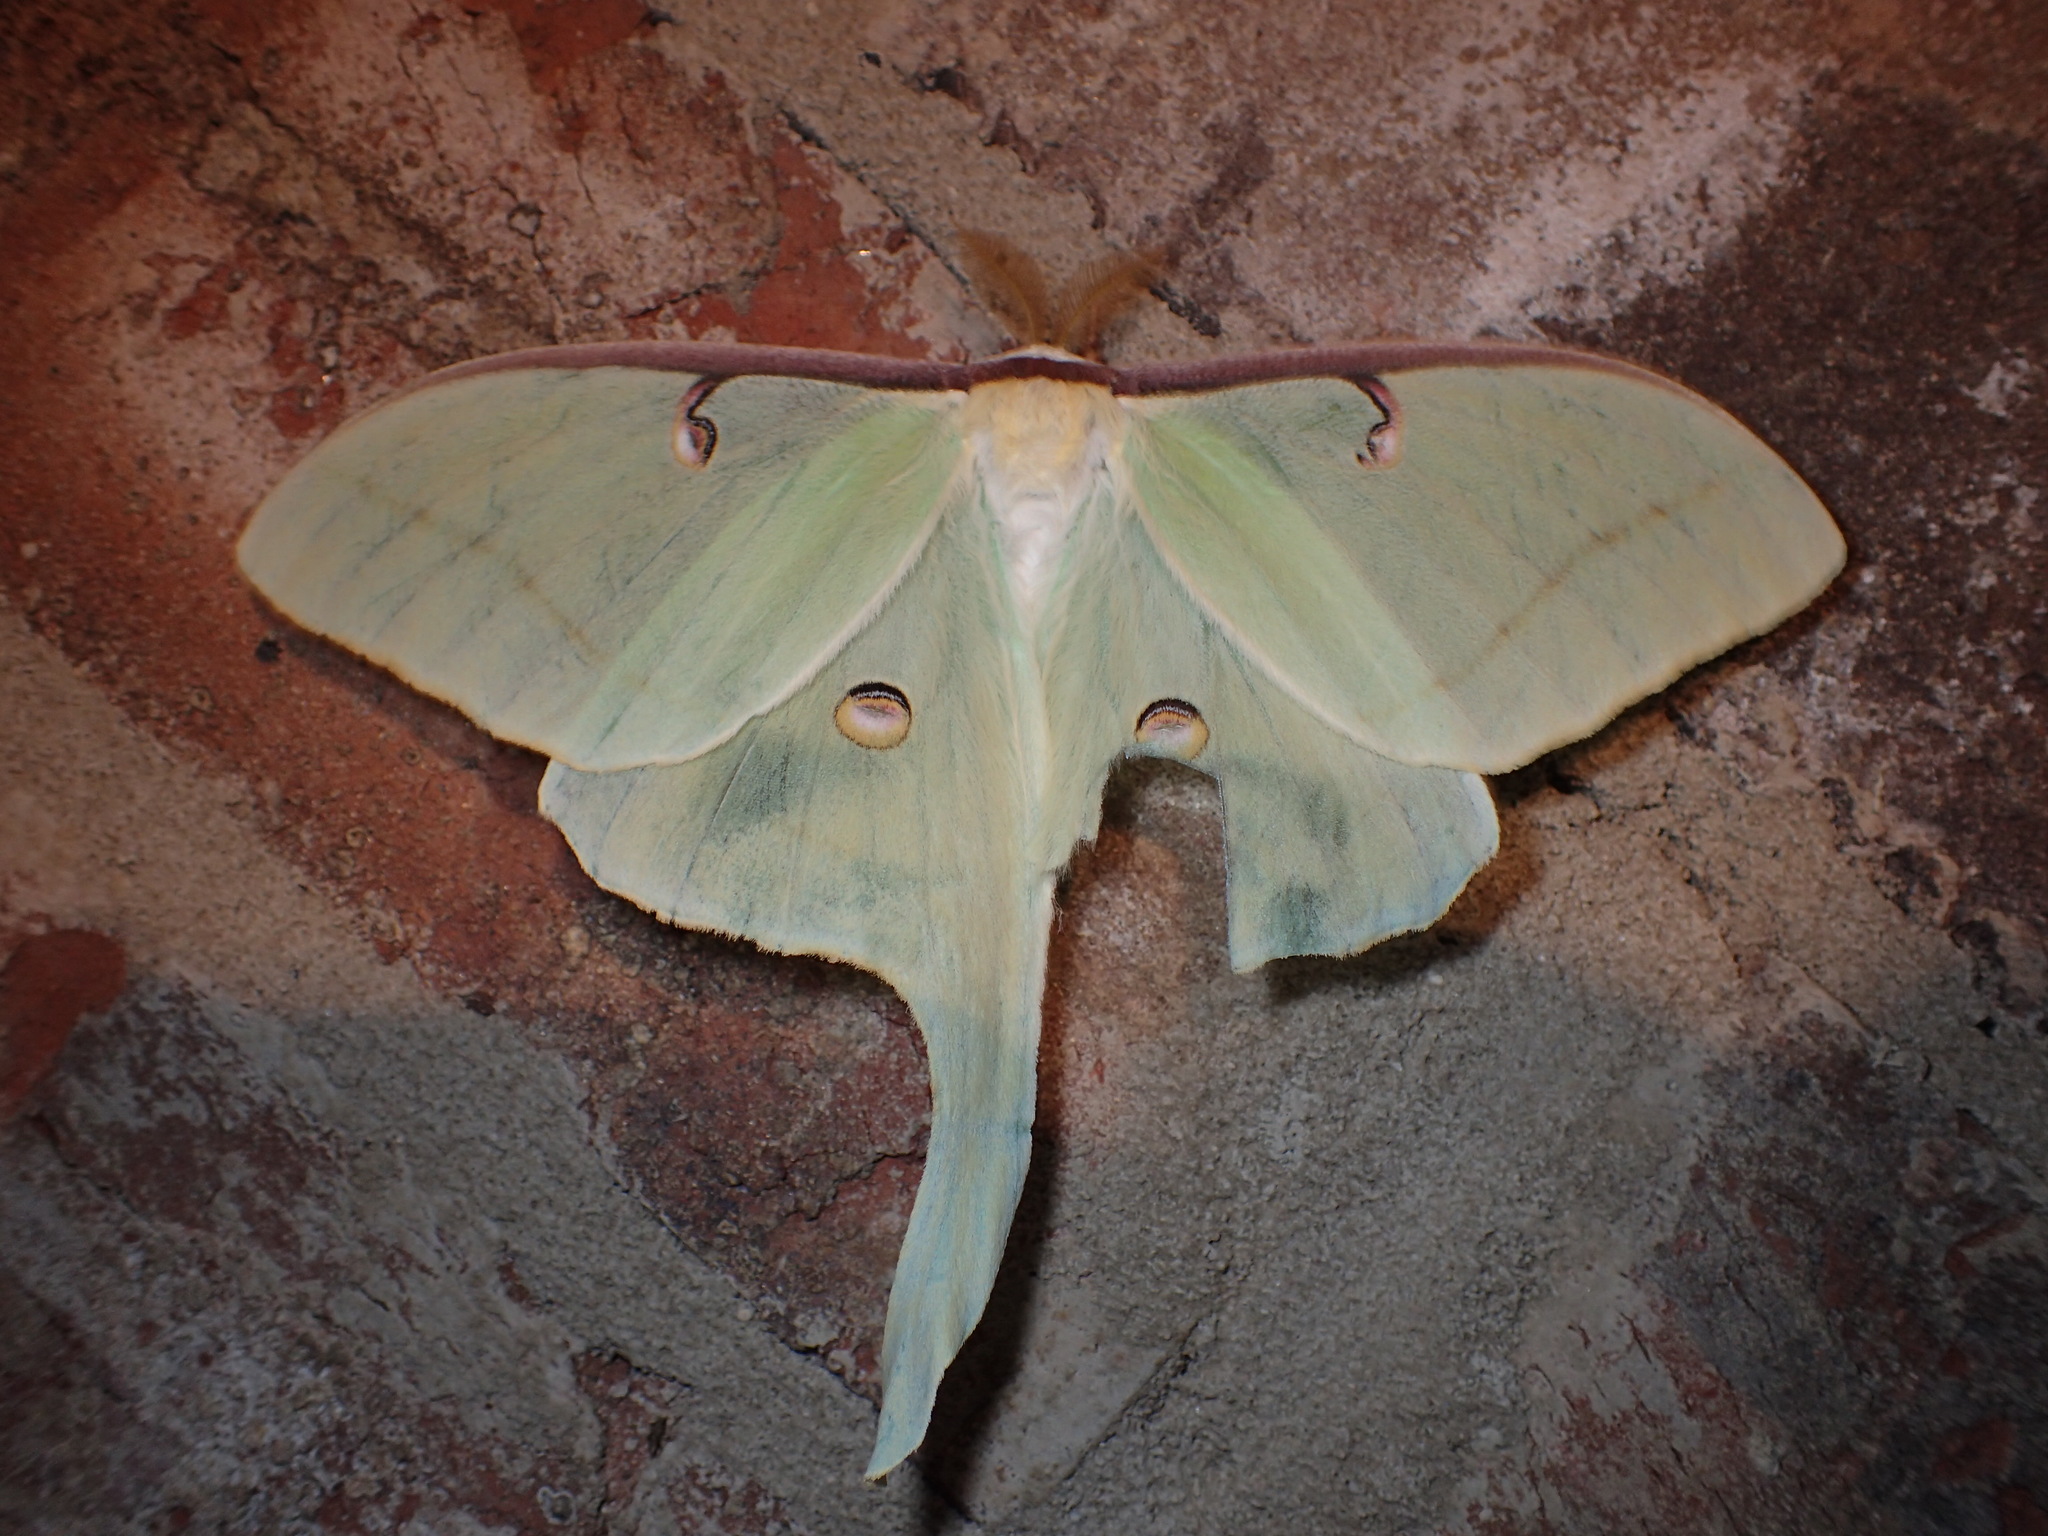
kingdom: Animalia
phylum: Arthropoda
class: Insecta
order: Lepidoptera
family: Saturniidae
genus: Actias
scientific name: Actias luna
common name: Luna moth
